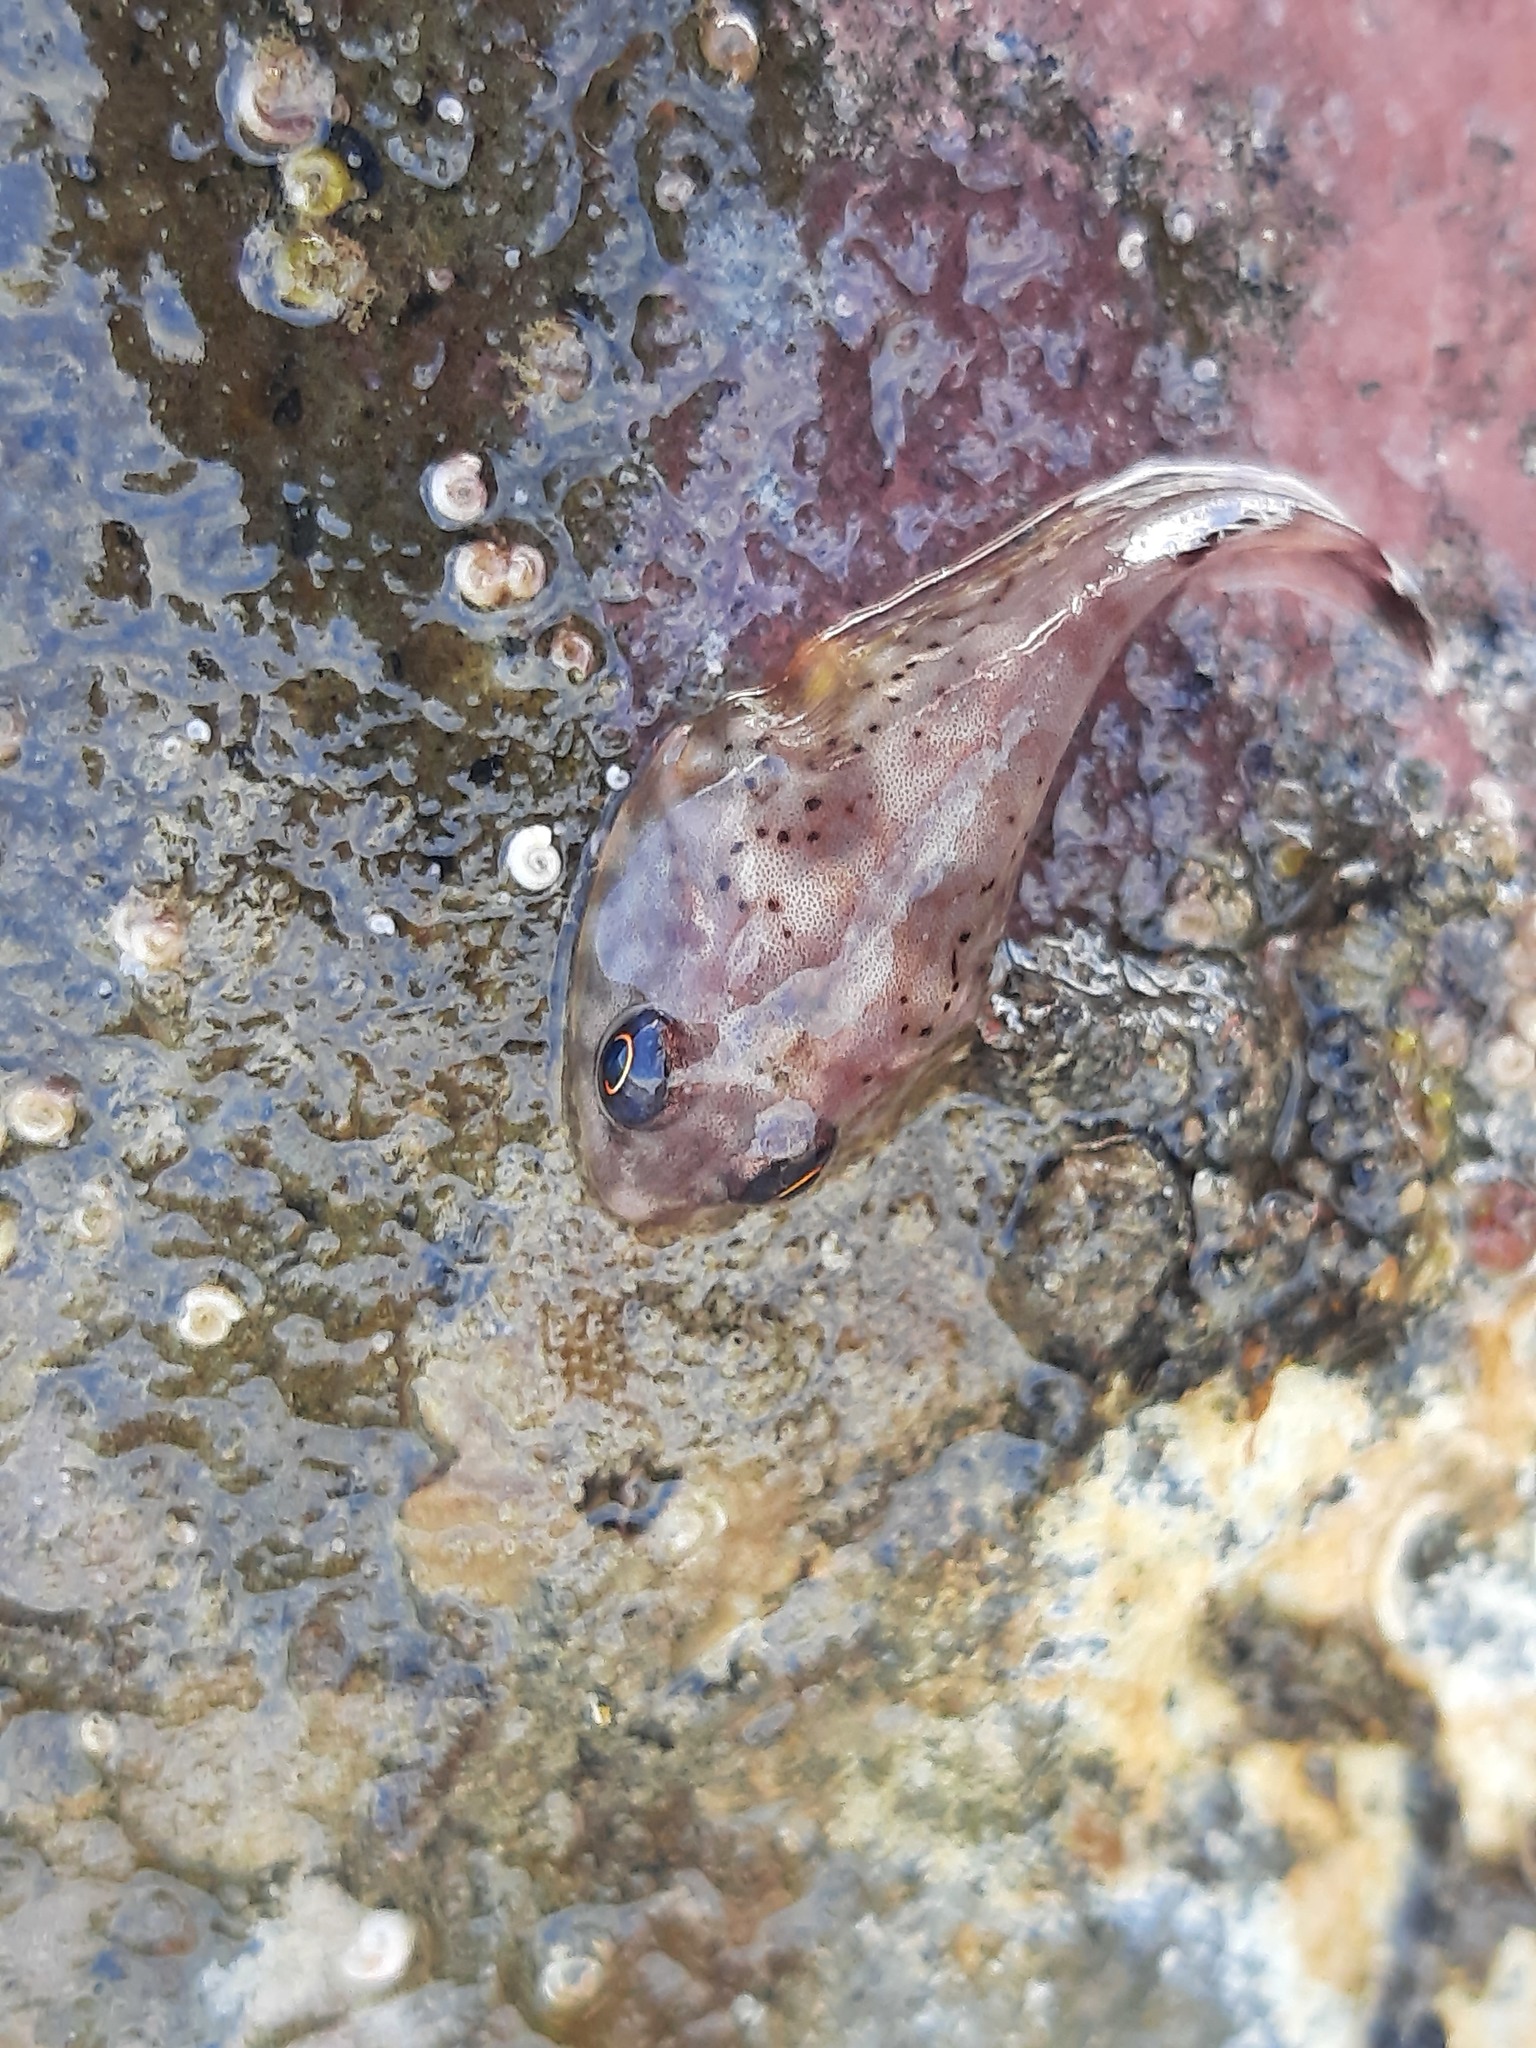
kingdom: Animalia
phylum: Chordata
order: Gobiesociformes
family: Gobiesocidae
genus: Diplocrepis
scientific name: Diplocrepis puniceus
